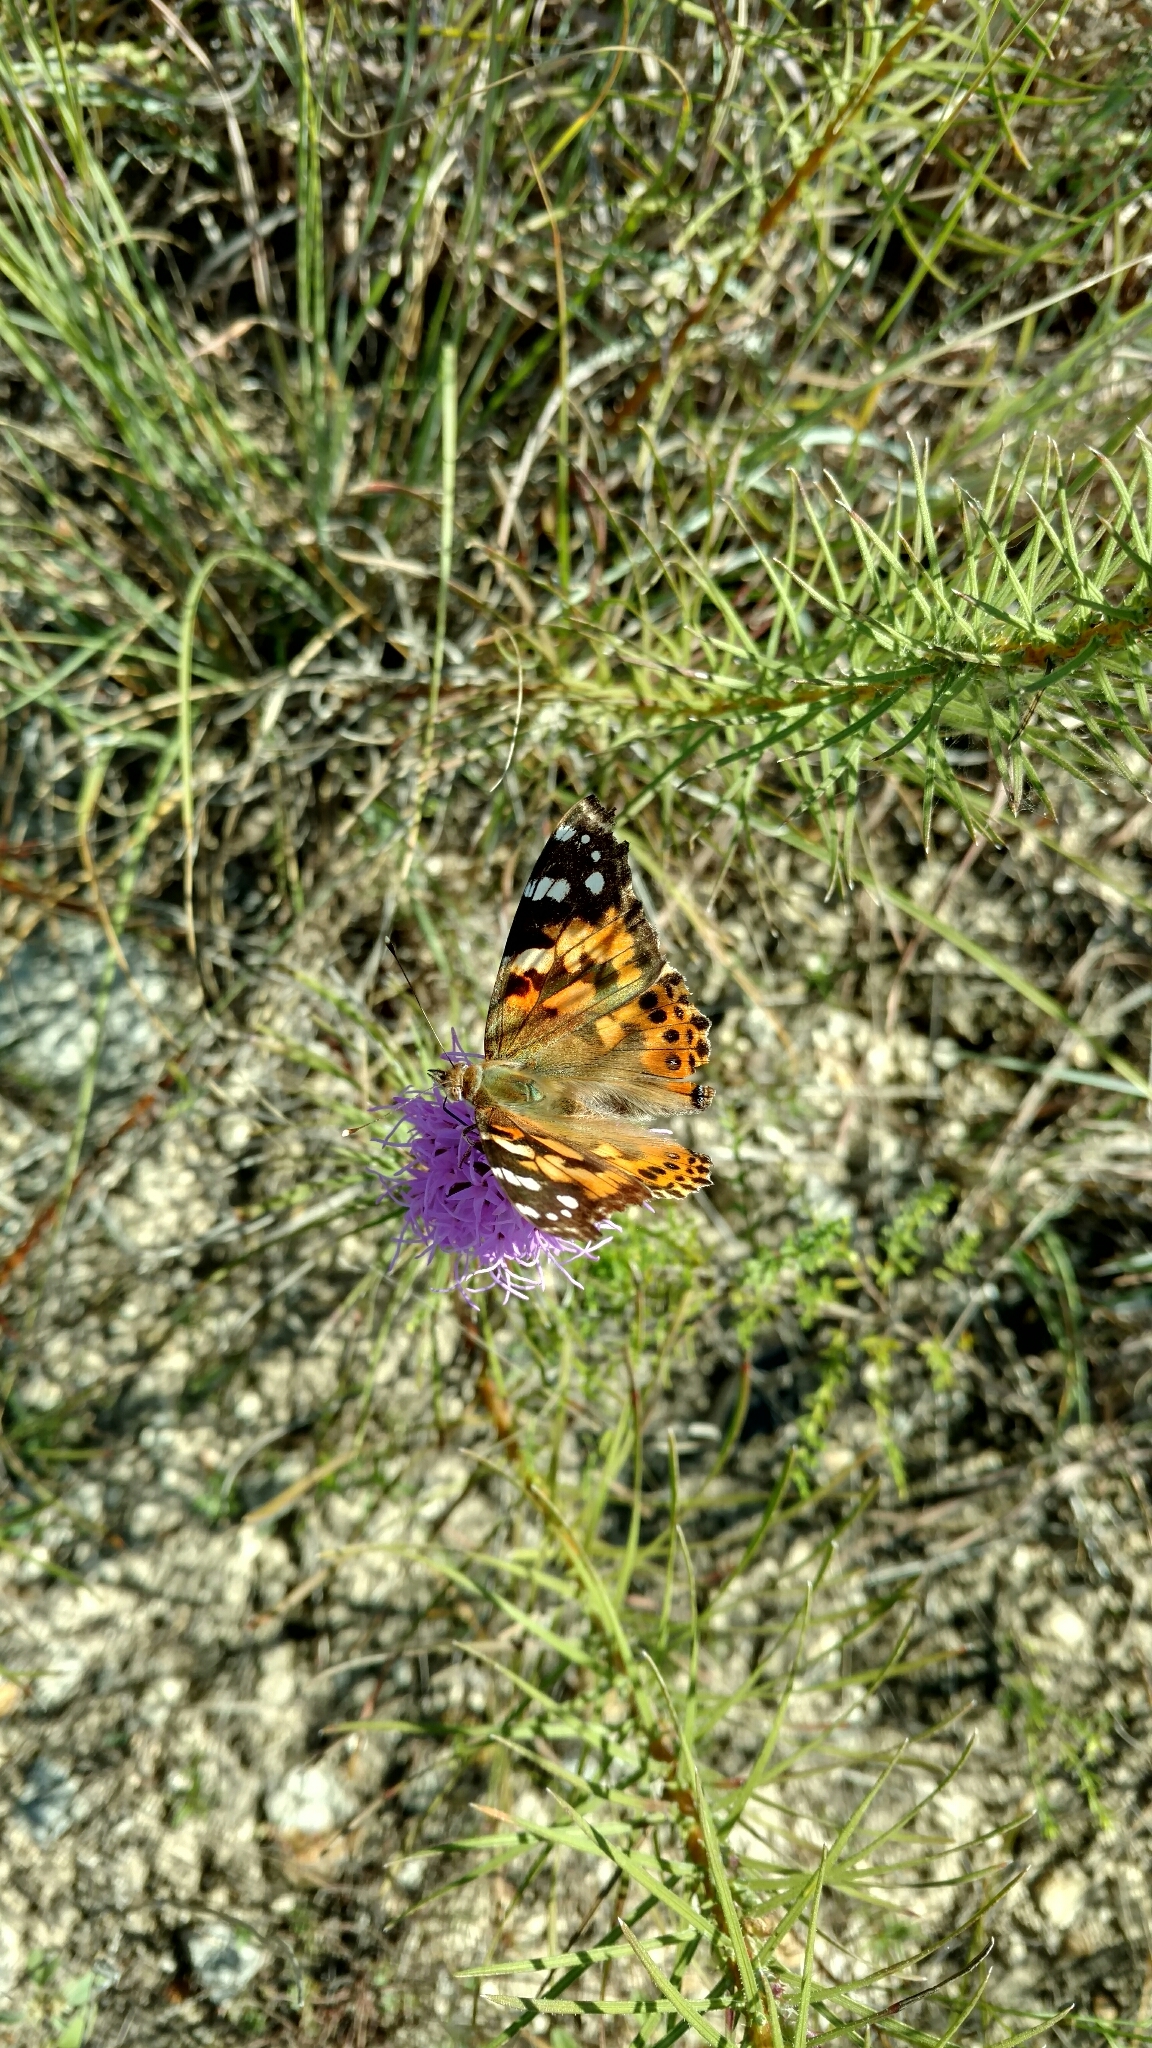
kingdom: Animalia
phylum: Arthropoda
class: Insecta
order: Lepidoptera
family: Nymphalidae
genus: Vanessa
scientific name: Vanessa cardui
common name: Painted lady
